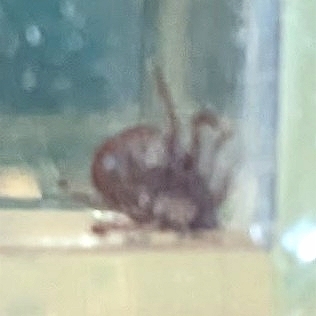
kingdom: Animalia
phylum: Arthropoda
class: Arachnida
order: Ixodida
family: Ixodidae
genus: Dermacentor
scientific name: Dermacentor variabilis
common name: American dog tick
